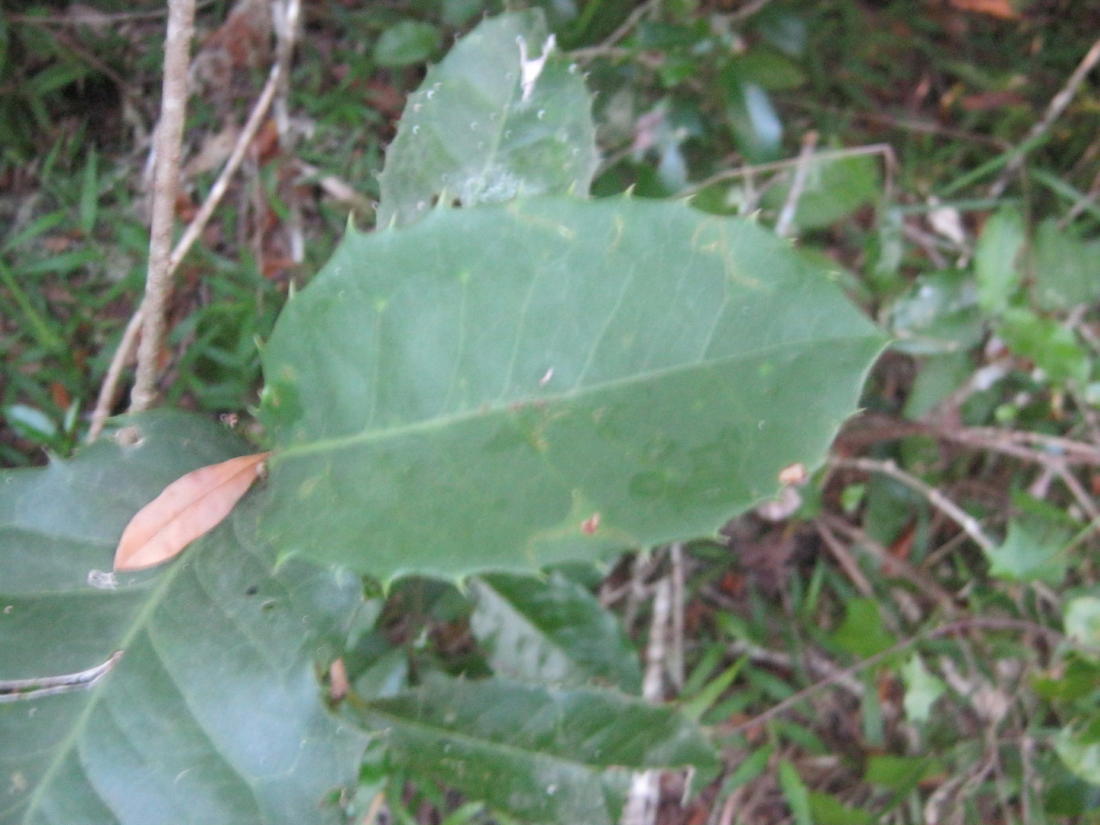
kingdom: Plantae
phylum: Tracheophyta
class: Magnoliopsida
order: Celastrales
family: Celastraceae
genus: Elaeodendron
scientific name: Elaeodendron croceum
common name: Saffron
